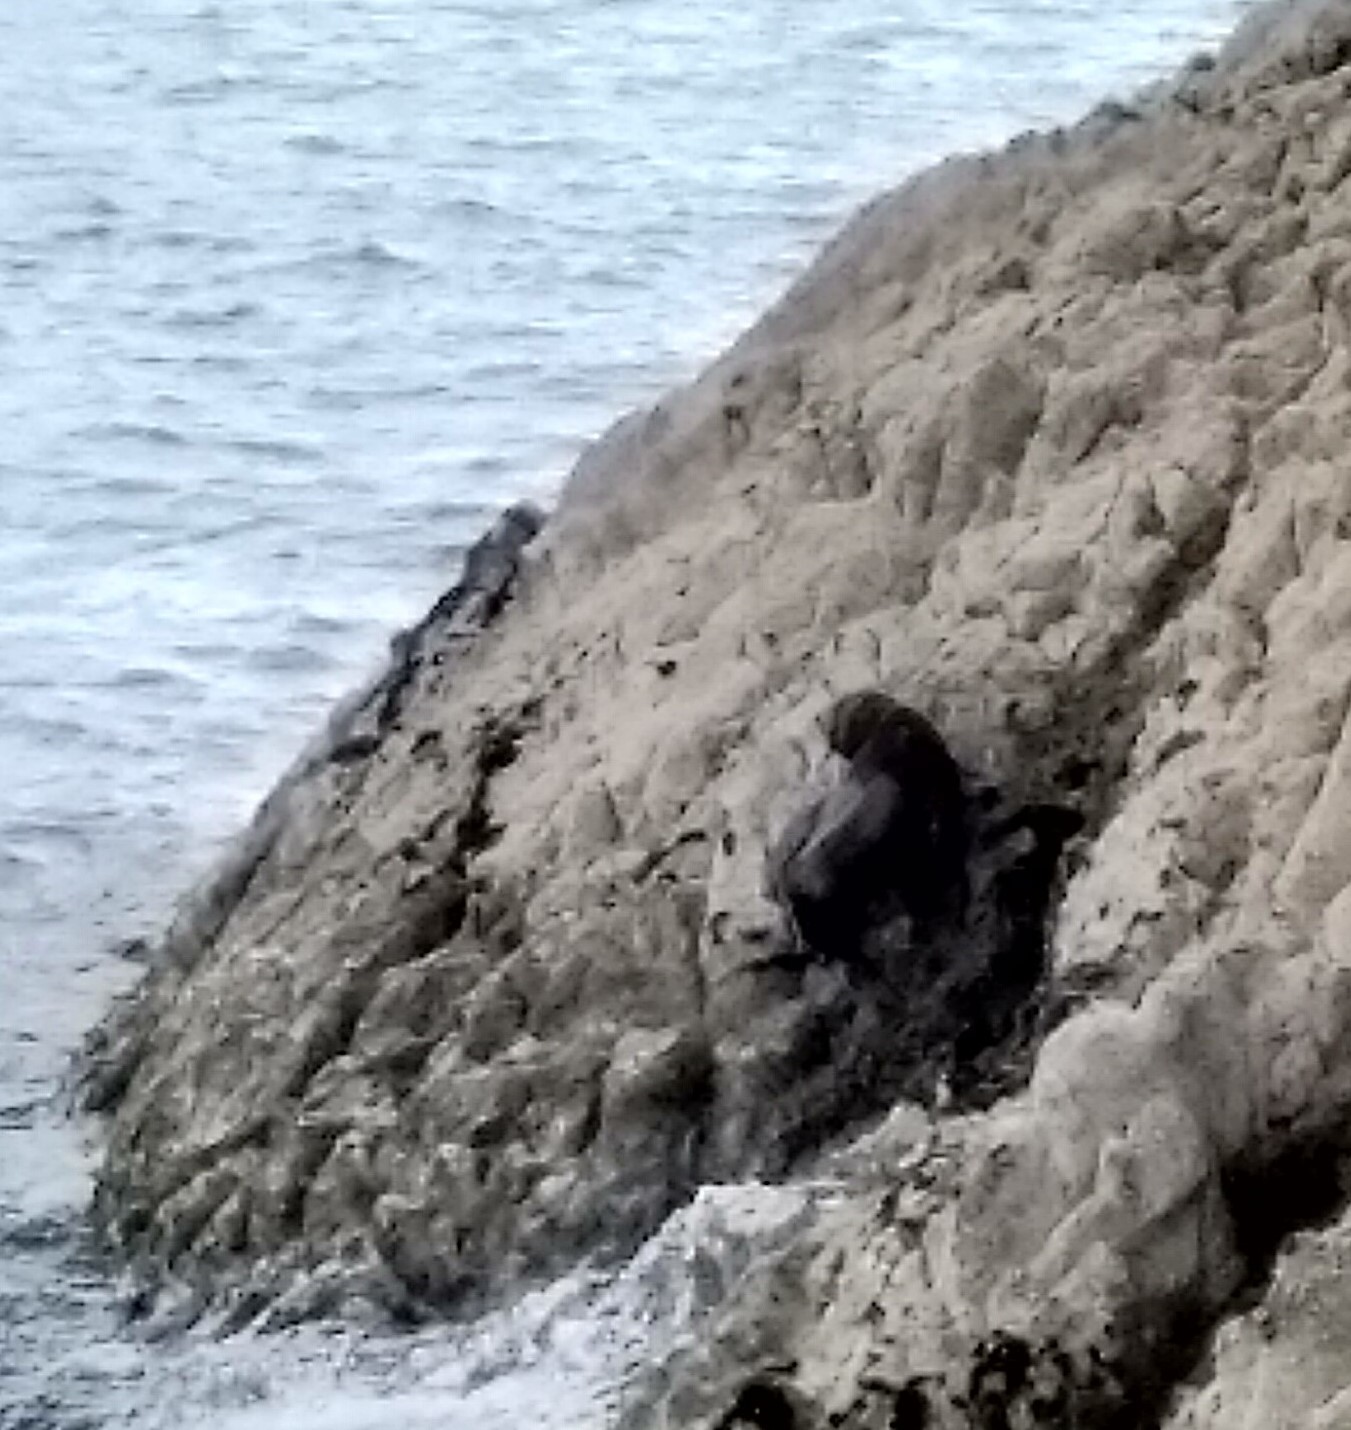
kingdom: Animalia
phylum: Chordata
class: Mammalia
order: Carnivora
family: Otariidae
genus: Arctocephalus
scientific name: Arctocephalus forsteri
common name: New zealand fur seal
